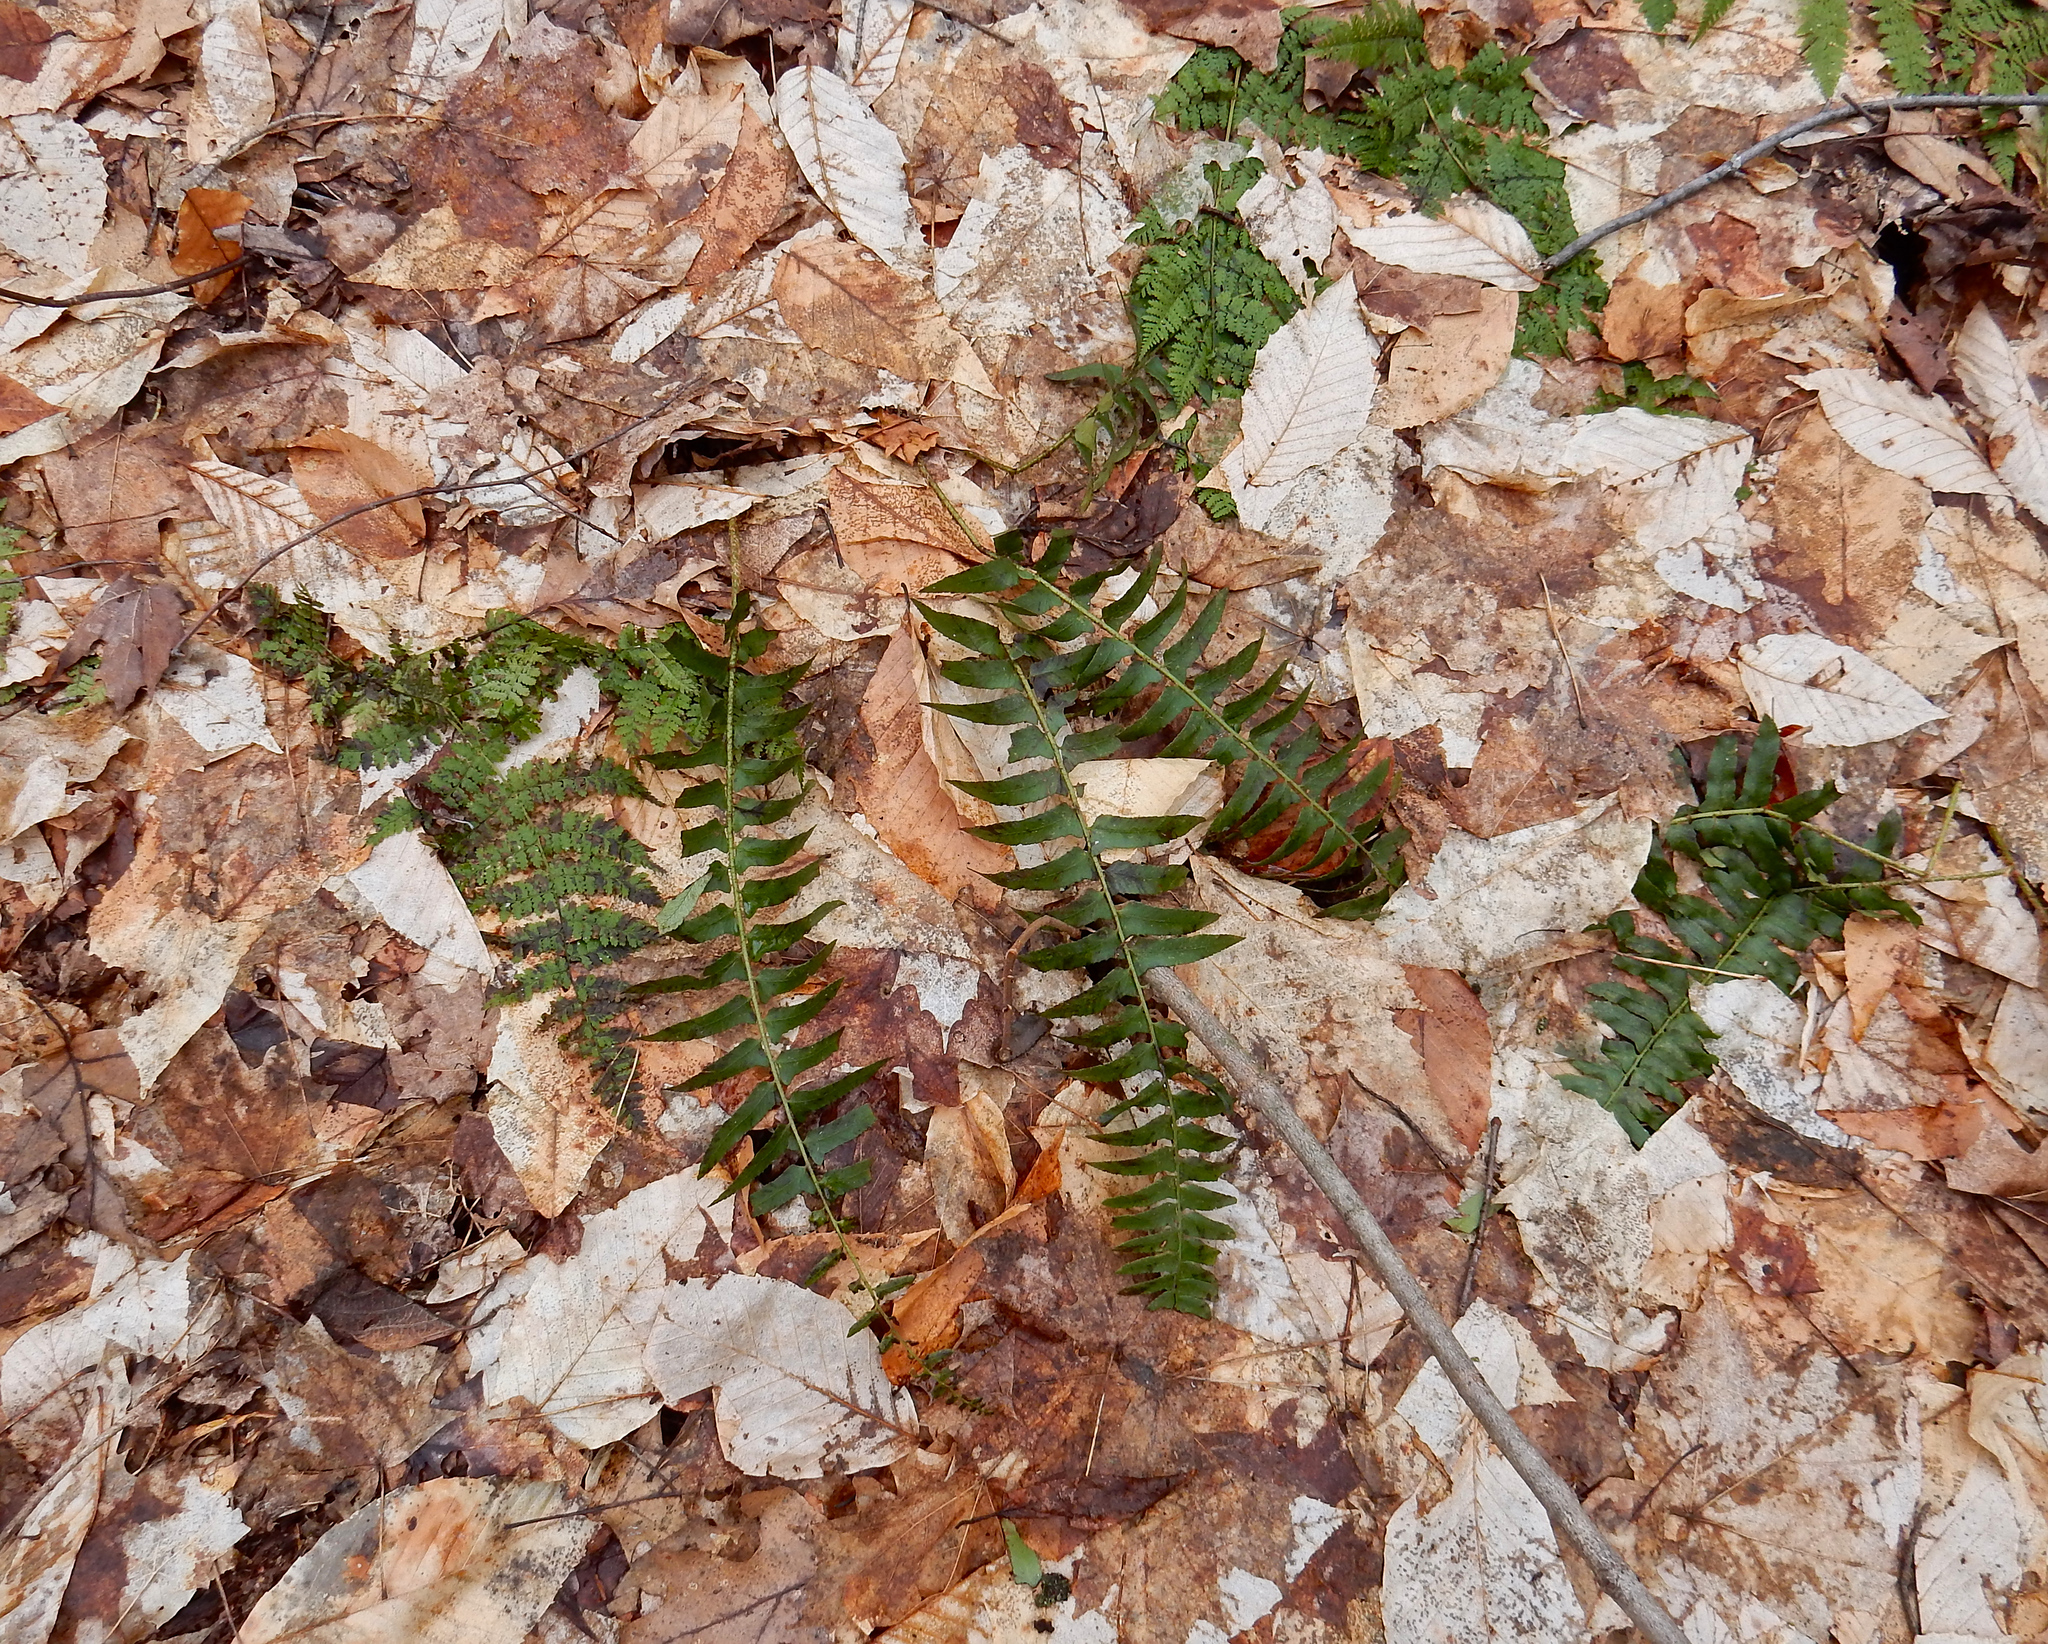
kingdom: Plantae
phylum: Tracheophyta
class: Polypodiopsida
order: Polypodiales
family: Dryopteridaceae
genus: Polystichum
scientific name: Polystichum acrostichoides
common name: Christmas fern
